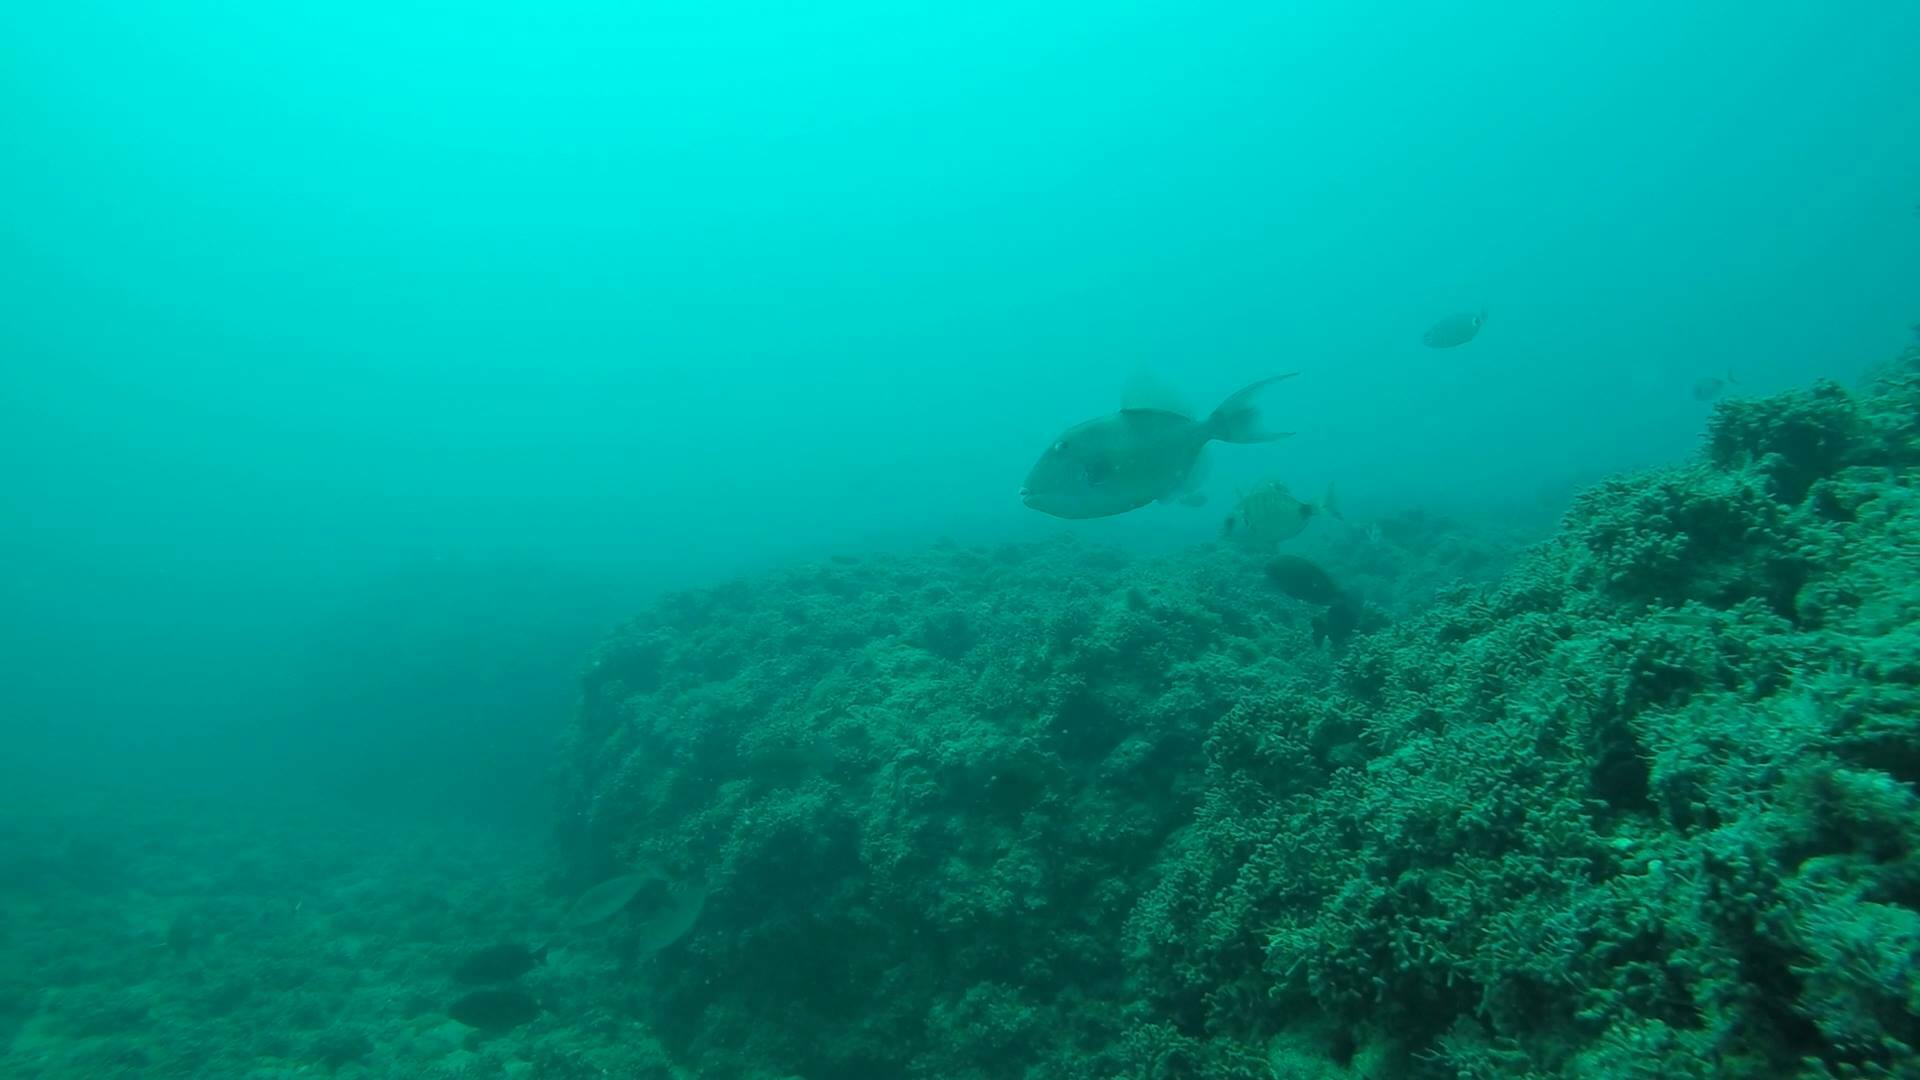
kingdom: Animalia
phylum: Chordata
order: Tetraodontiformes
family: Balistidae
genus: Balistes
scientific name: Balistes capriscus
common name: Grey triggerfish
